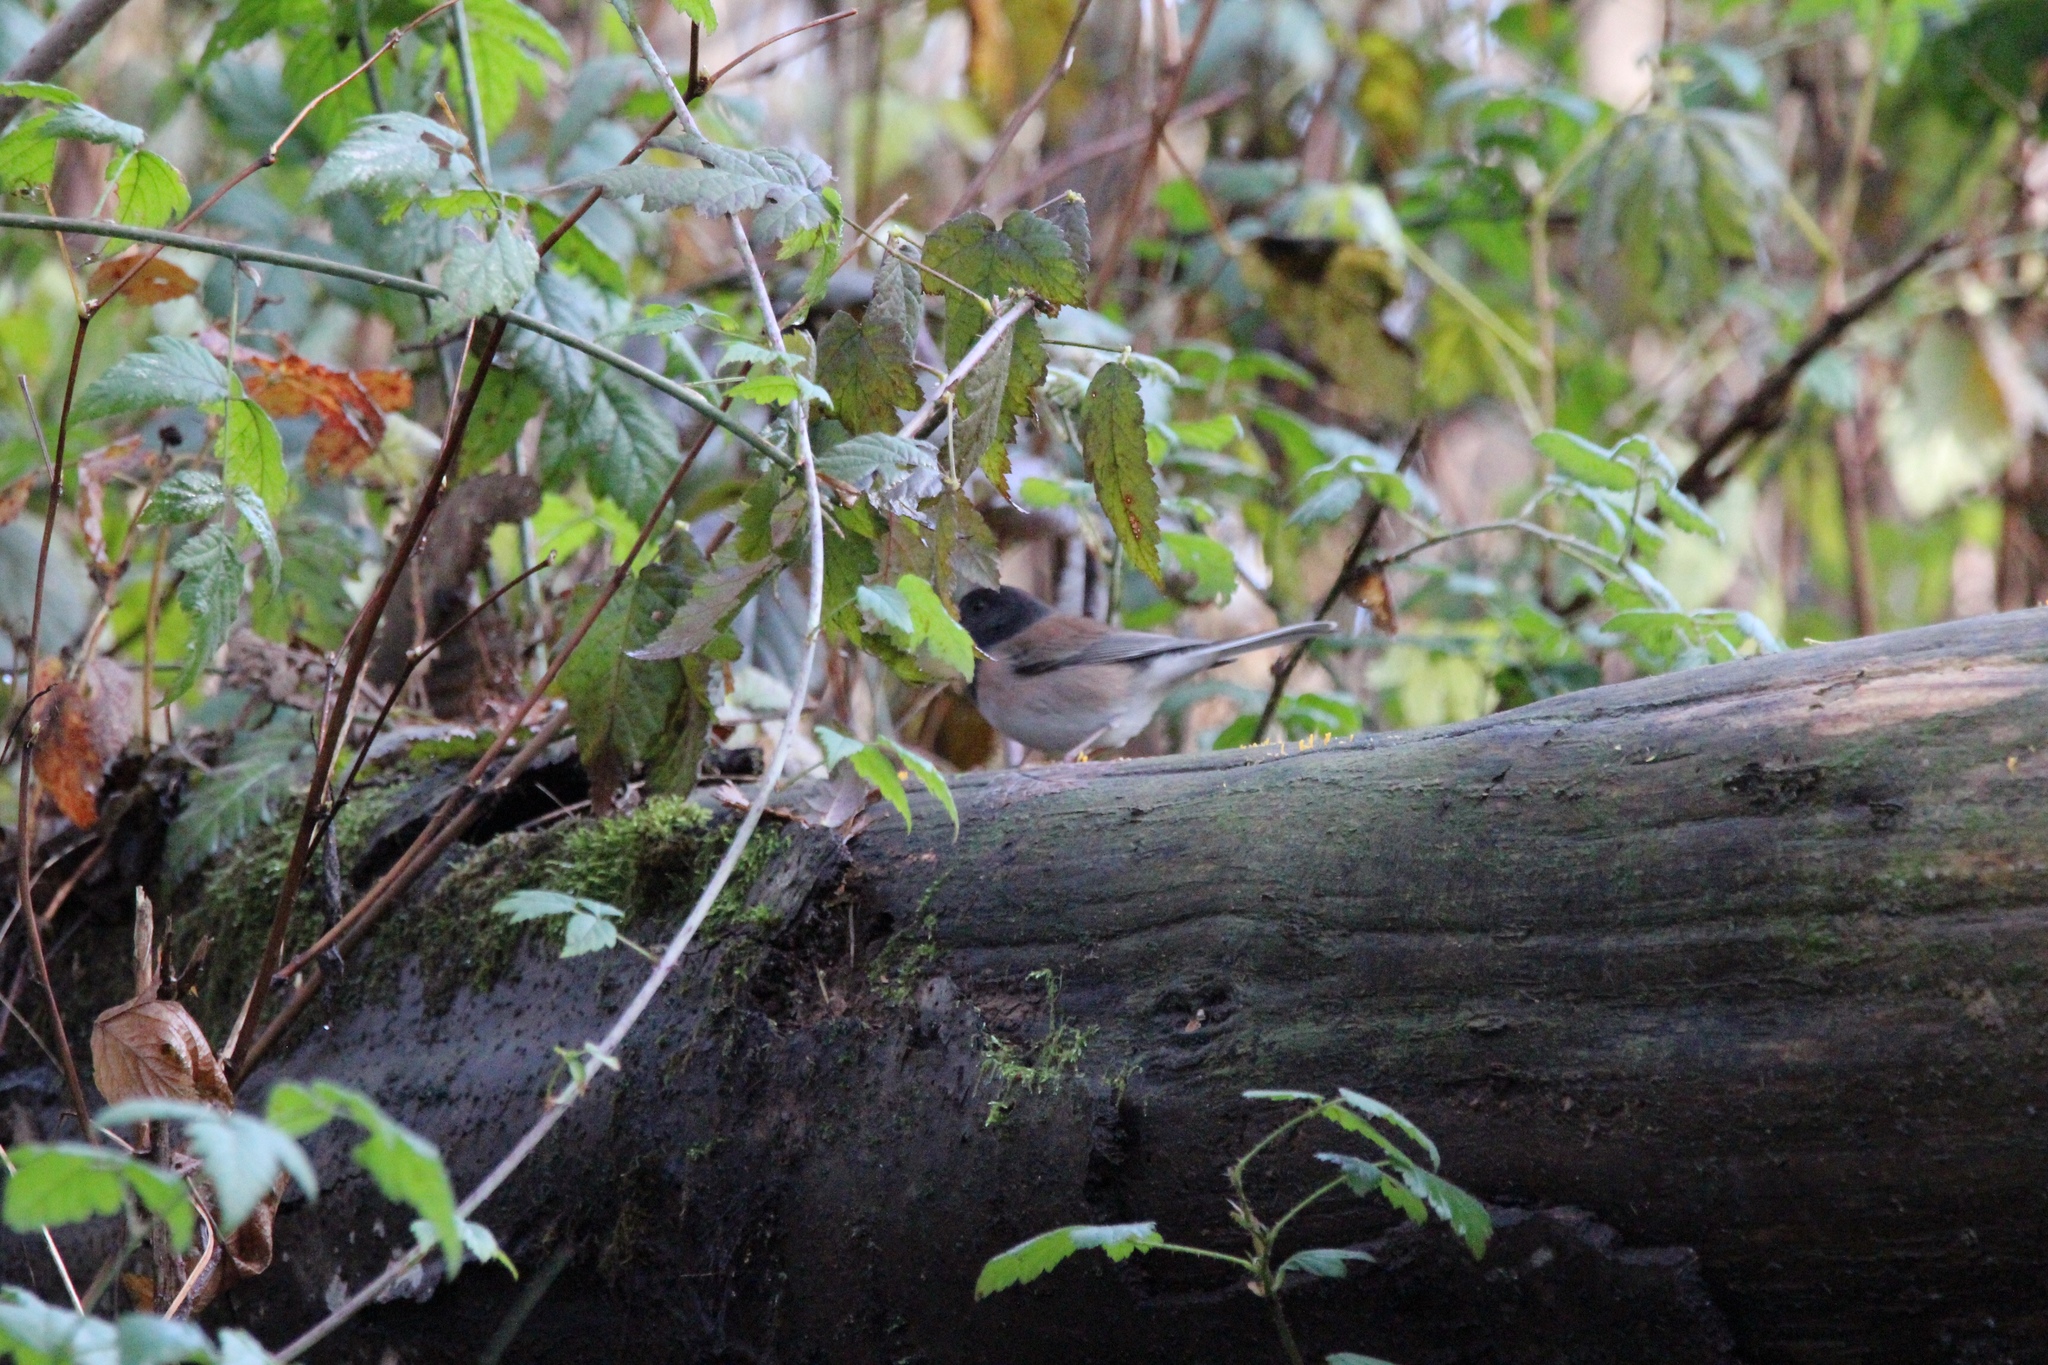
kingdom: Animalia
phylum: Chordata
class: Aves
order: Passeriformes
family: Passerellidae
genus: Junco
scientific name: Junco hyemalis
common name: Dark-eyed junco
